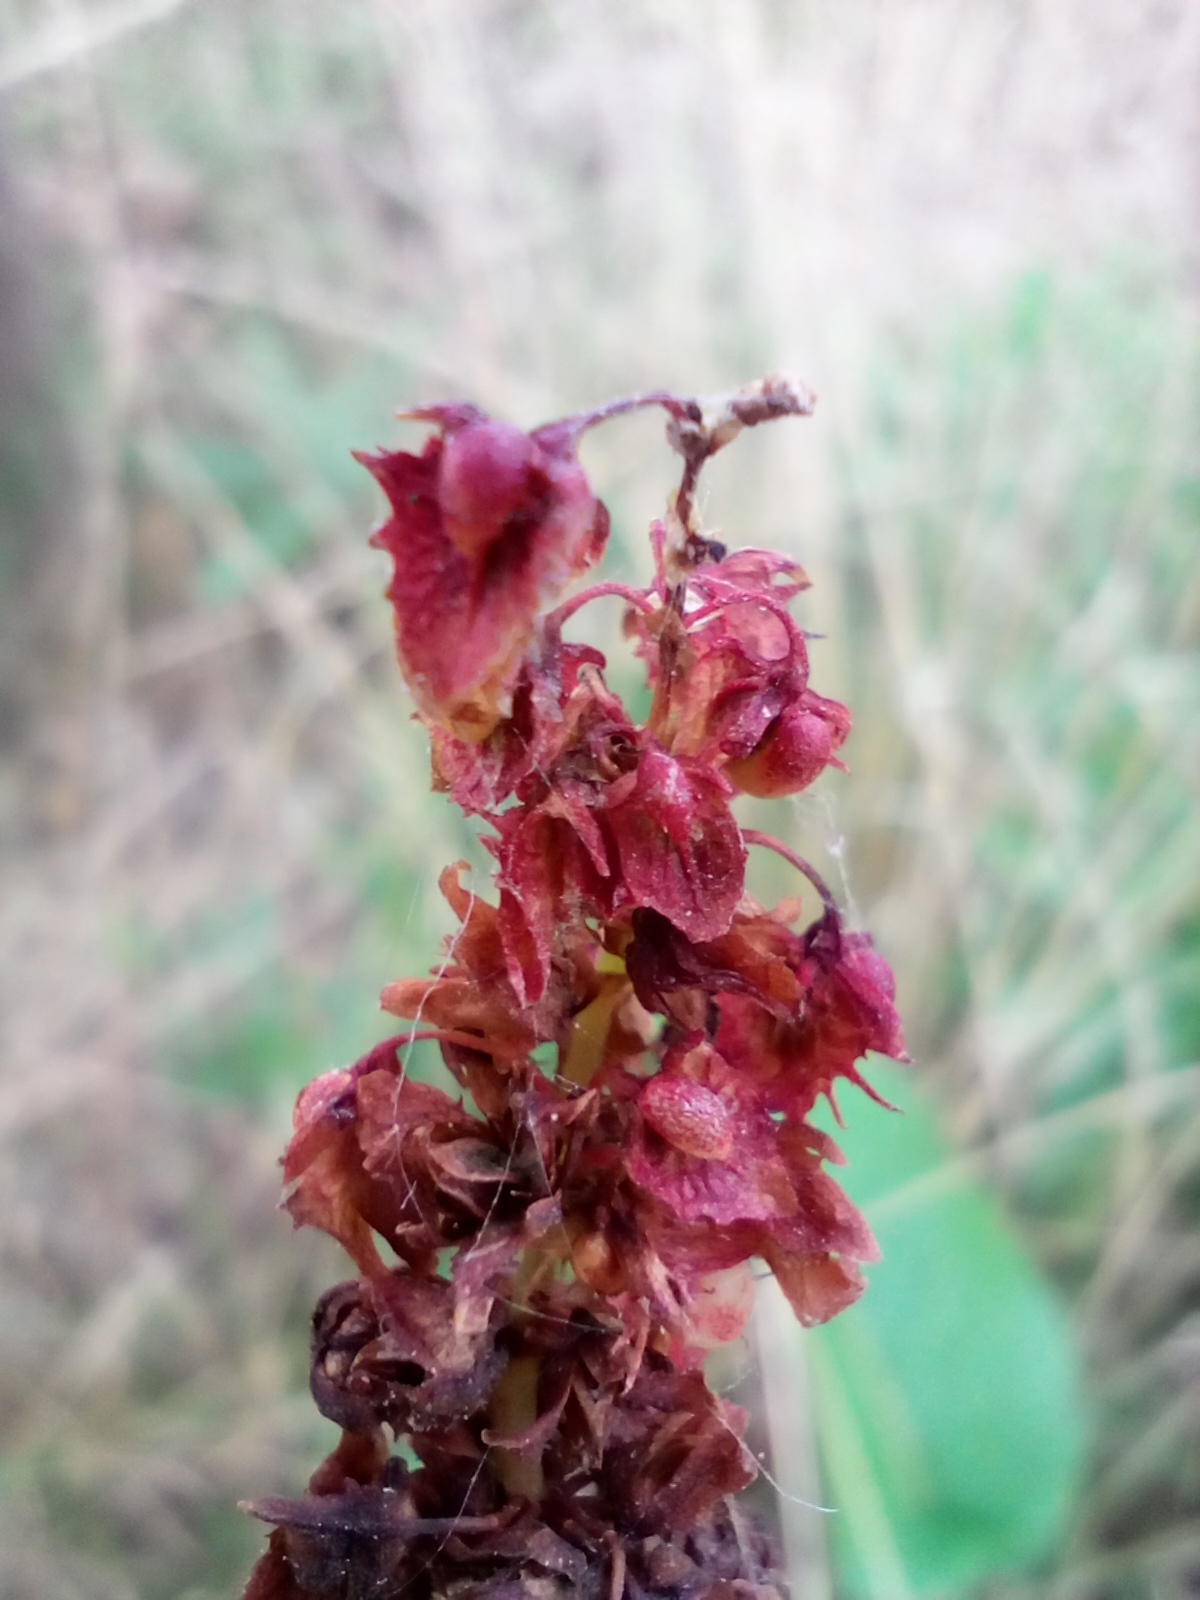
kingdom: Plantae
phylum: Tracheophyta
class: Magnoliopsida
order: Caryophyllales
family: Polygonaceae
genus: Rumex
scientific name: Rumex obtusifolius
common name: Bitter dock
